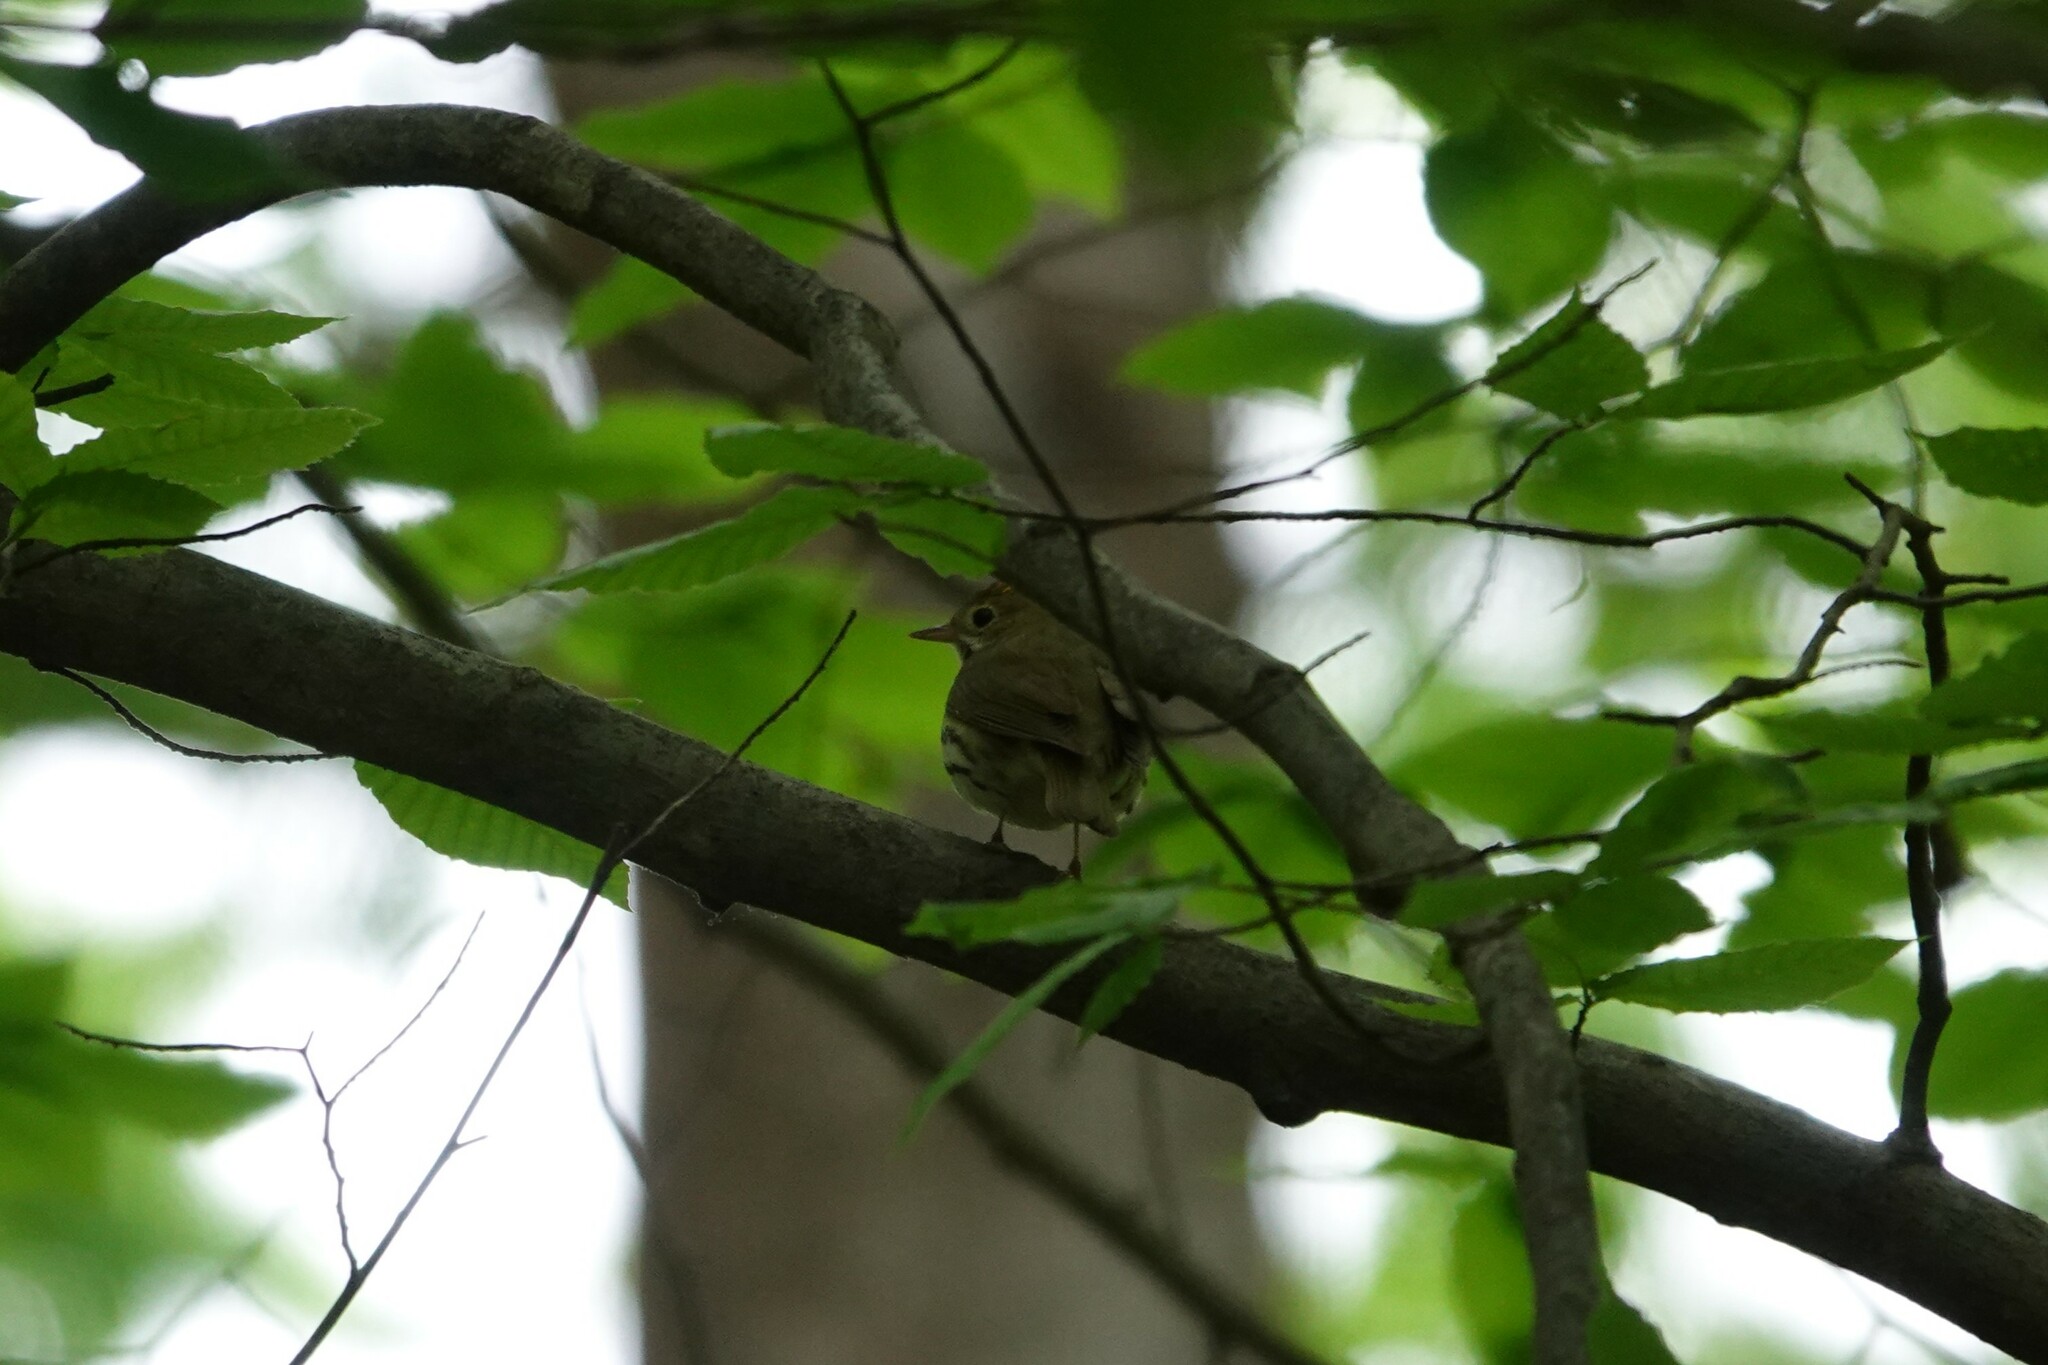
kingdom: Animalia
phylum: Chordata
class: Aves
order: Passeriformes
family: Parulidae
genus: Seiurus
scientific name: Seiurus aurocapilla
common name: Ovenbird
